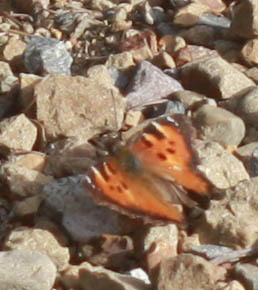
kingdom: Animalia
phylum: Arthropoda
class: Insecta
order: Lepidoptera
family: Nymphalidae
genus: Nymphalis
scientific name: Nymphalis californica
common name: California tortoiseshell
